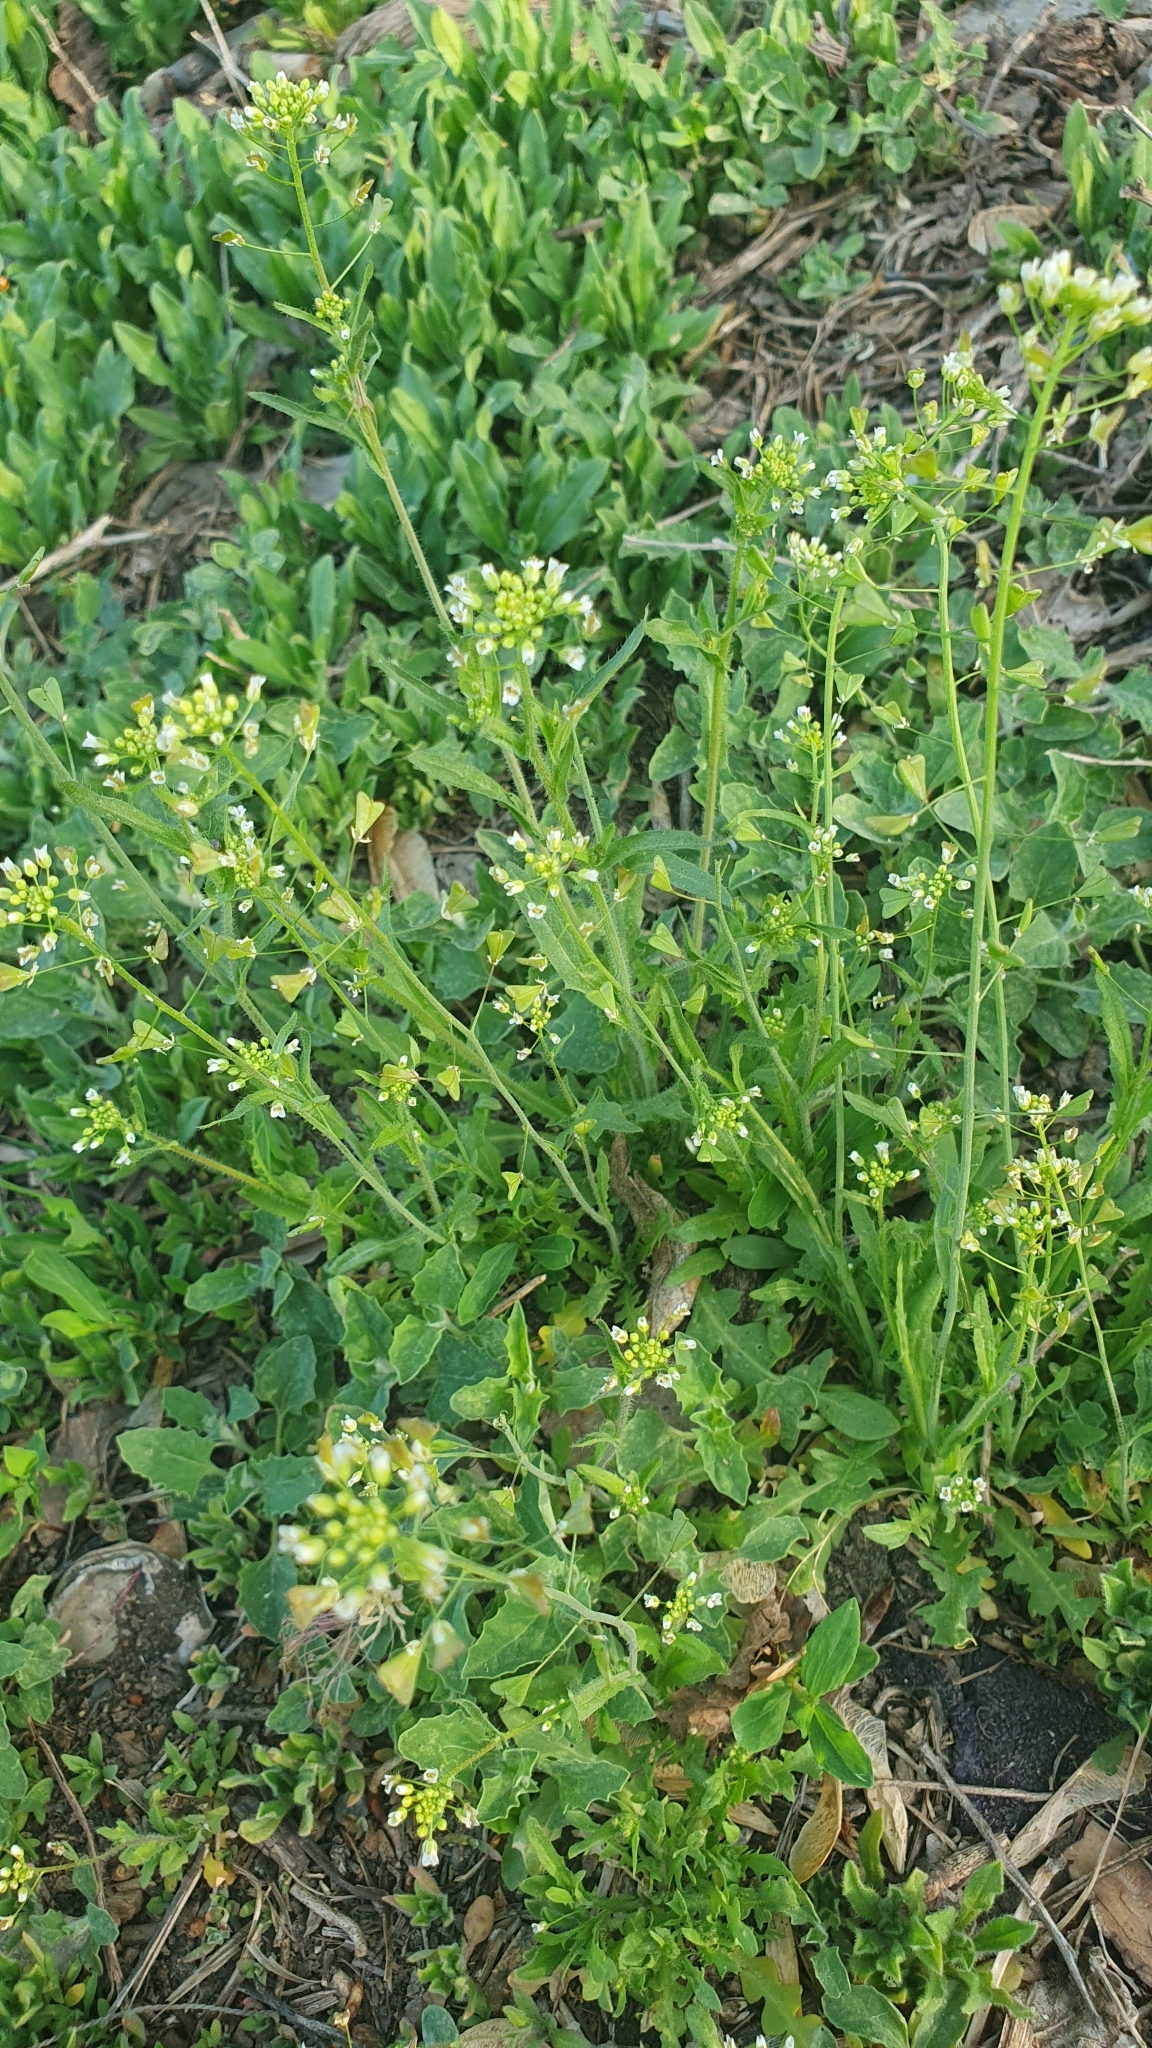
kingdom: Plantae
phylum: Tracheophyta
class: Magnoliopsida
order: Brassicales
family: Brassicaceae
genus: Capsella
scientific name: Capsella bursa-pastoris
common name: Shepherd's purse
